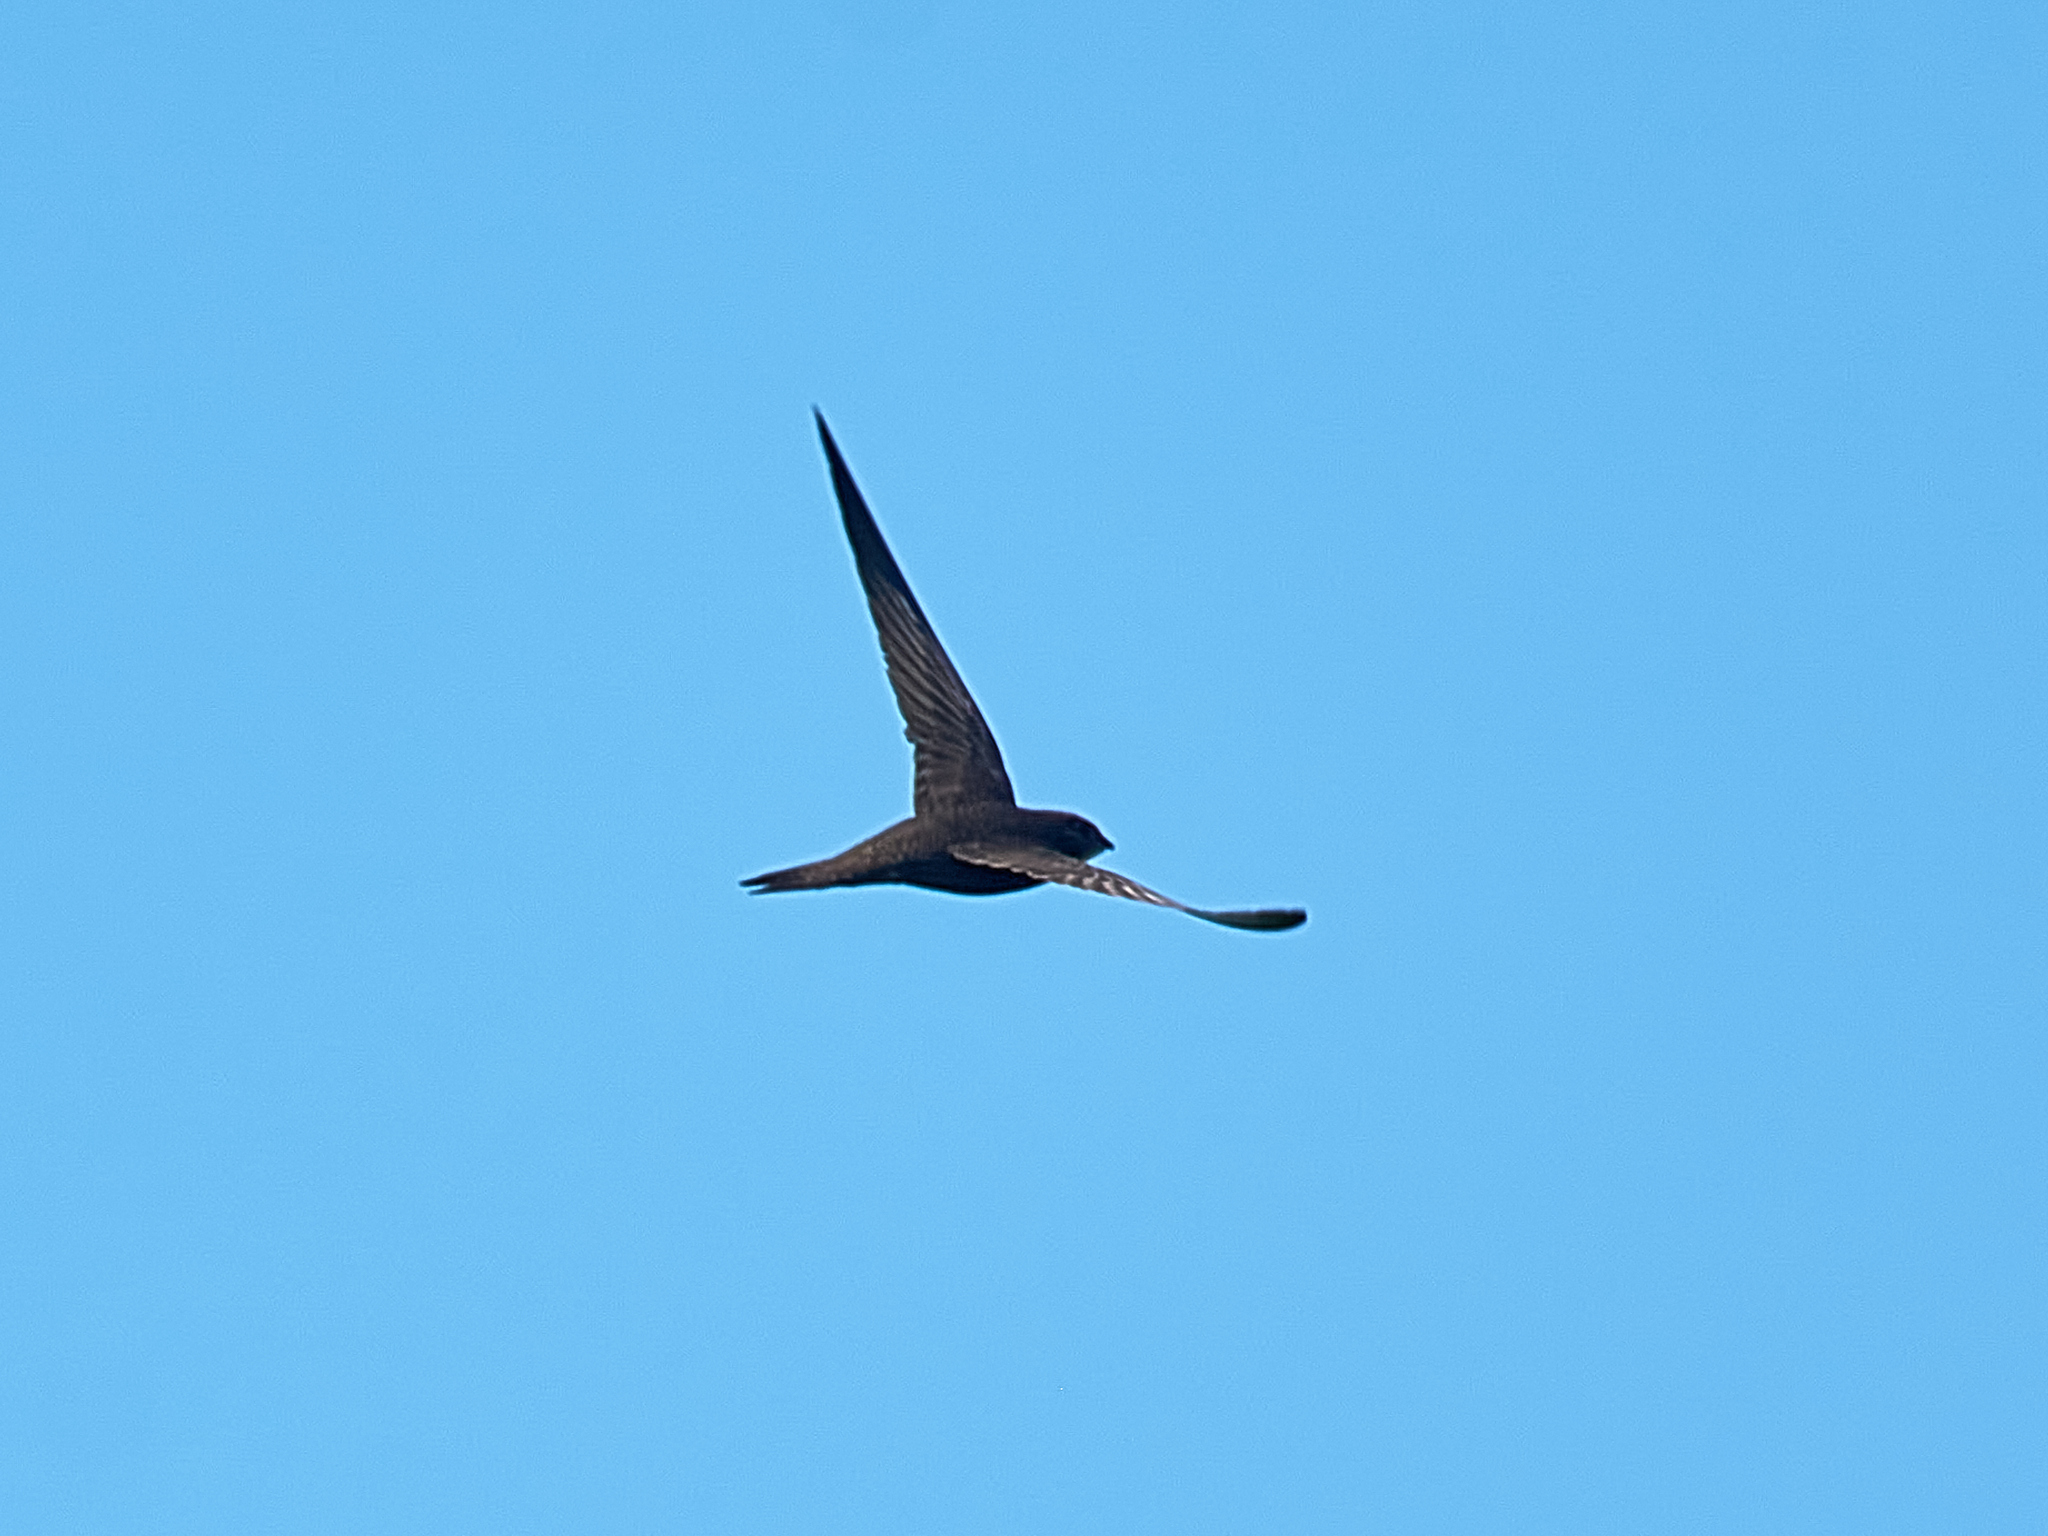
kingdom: Animalia
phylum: Chordata
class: Aves
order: Apodiformes
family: Apodidae
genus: Apus
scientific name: Apus apus
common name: Common swift
